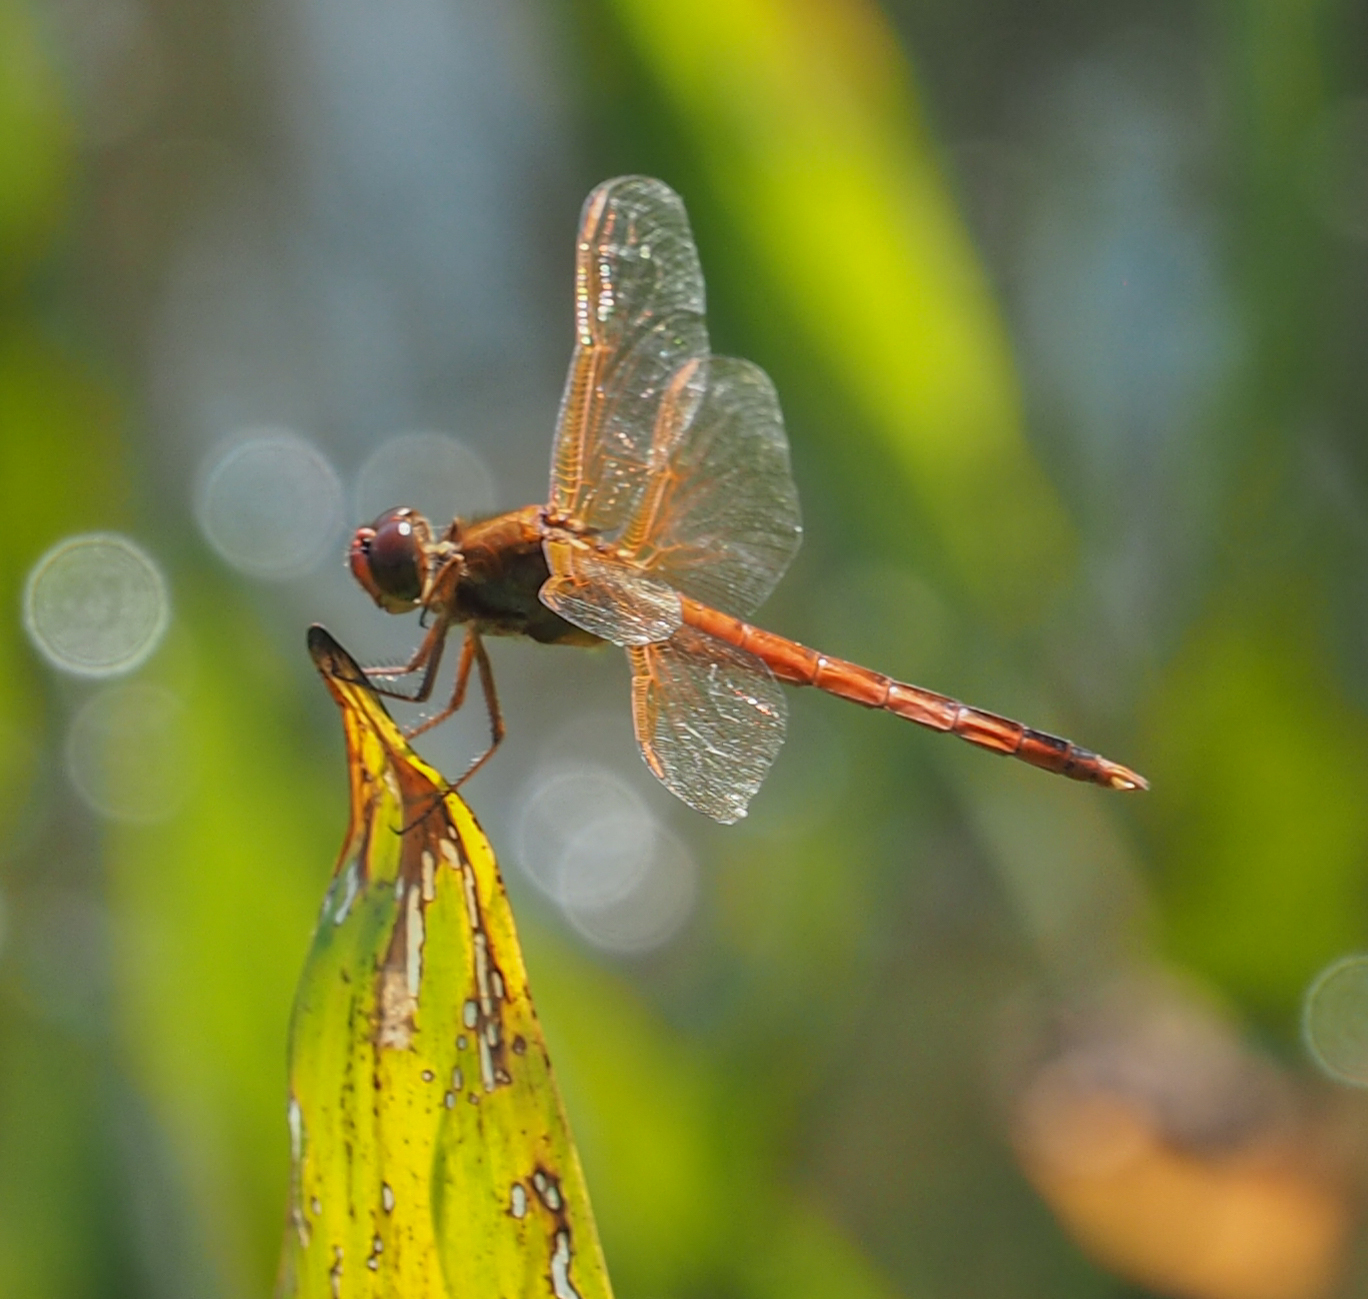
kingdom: Animalia
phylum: Arthropoda
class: Insecta
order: Odonata
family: Libellulidae
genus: Libellula
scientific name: Libellula needhami
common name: Needham's skimmer
